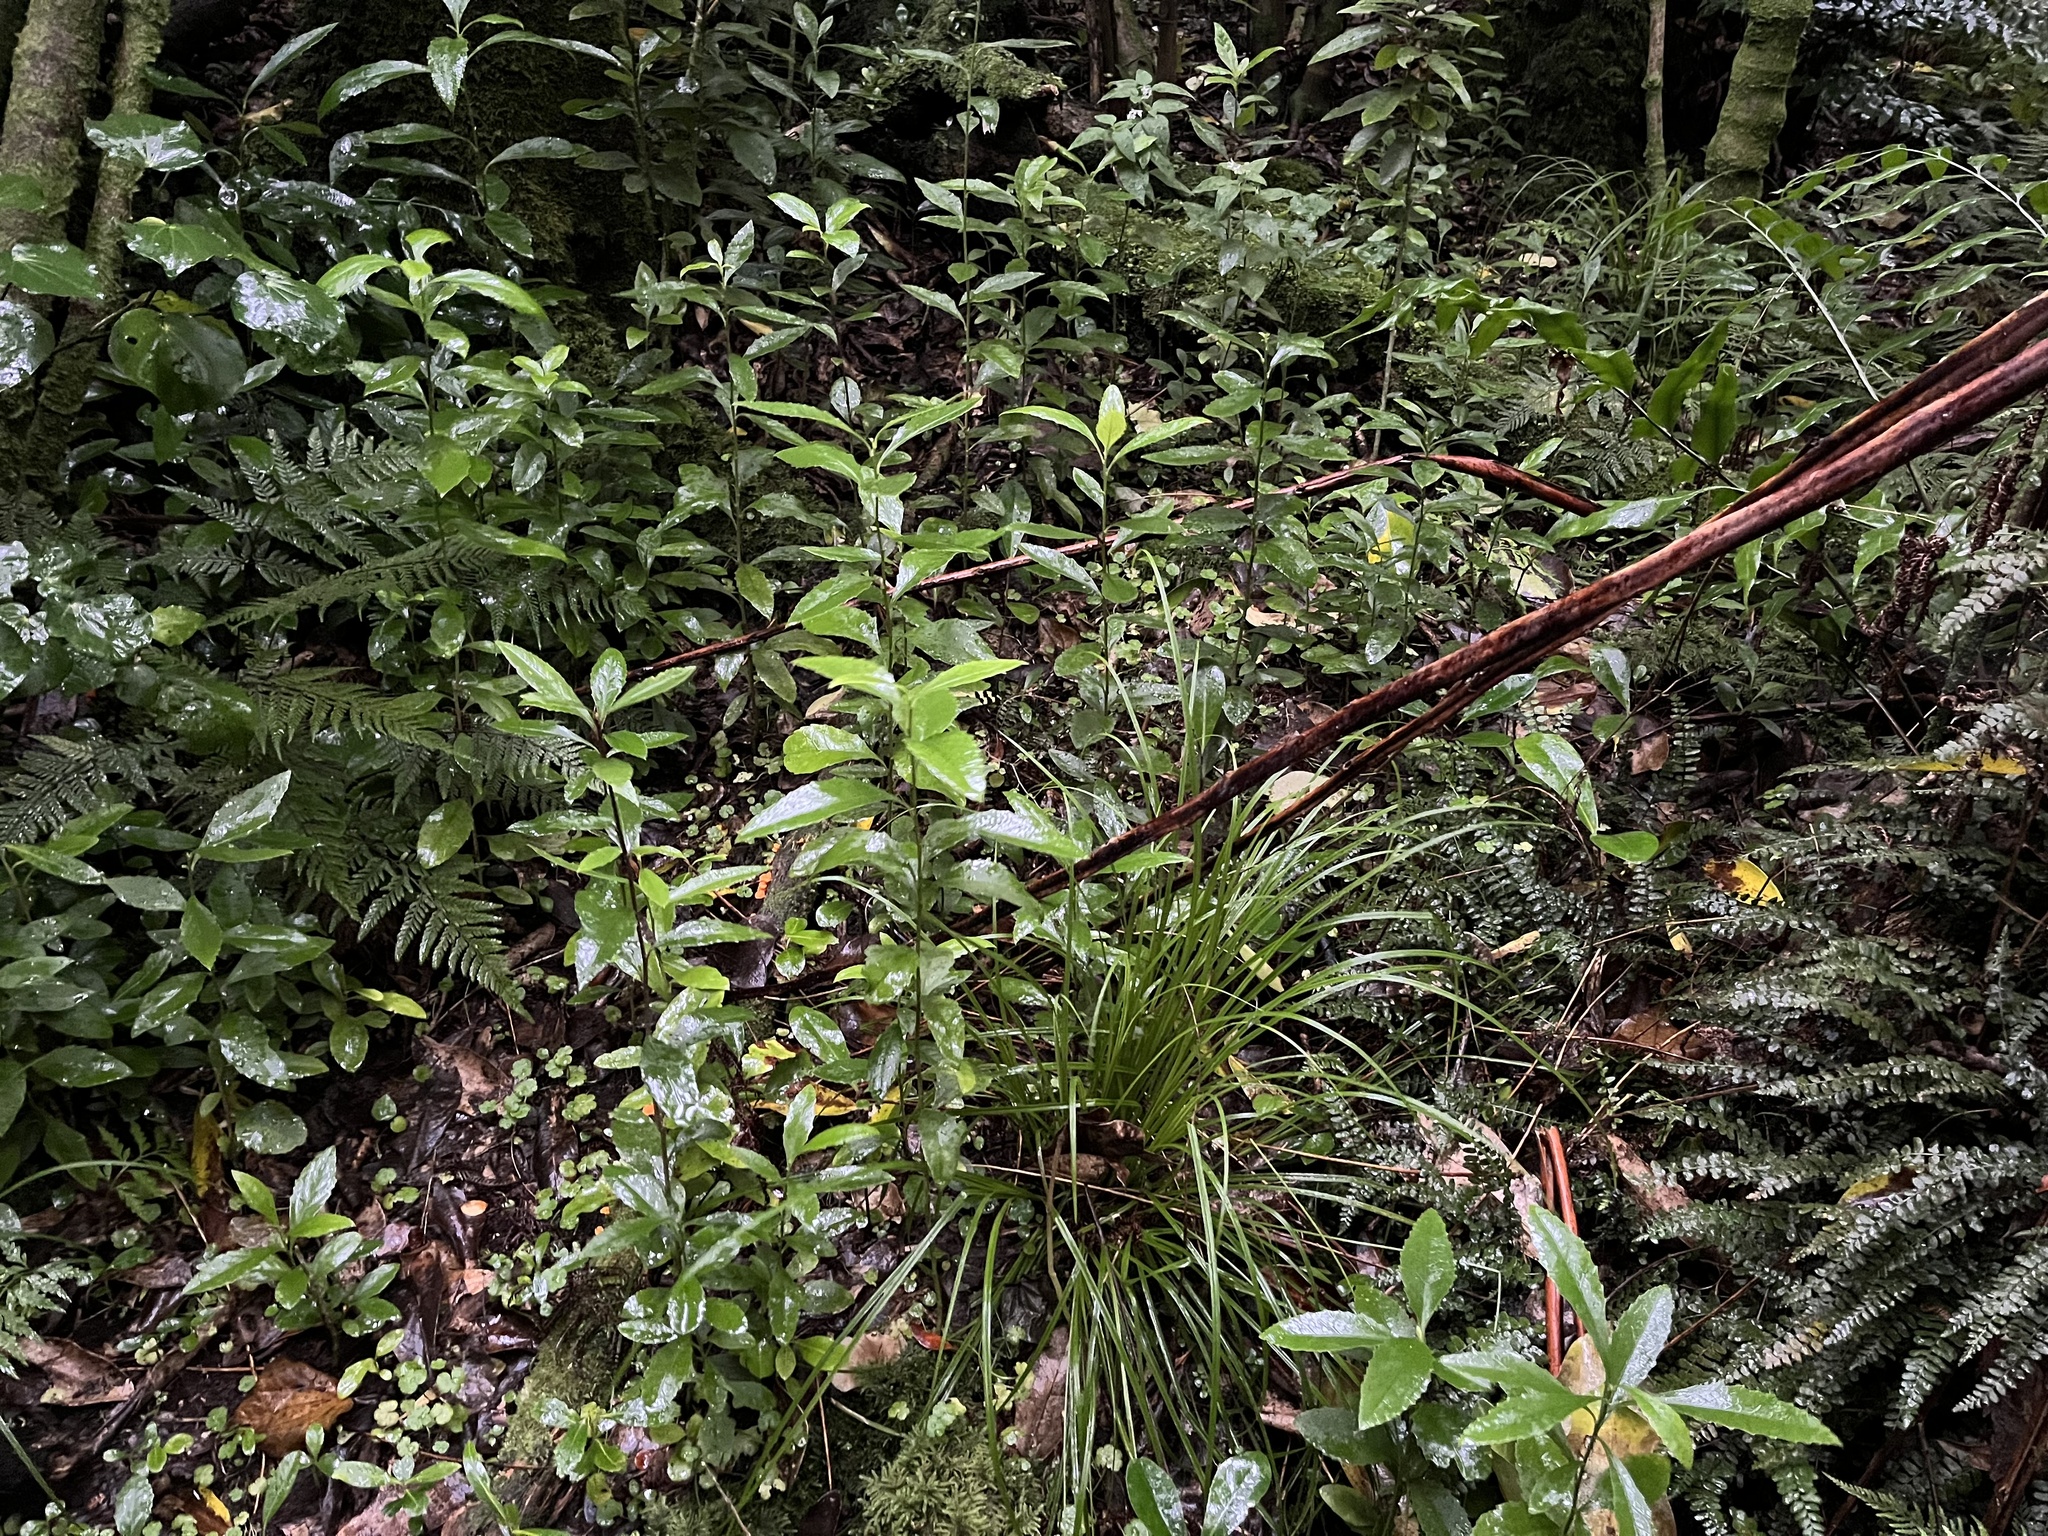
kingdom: Plantae
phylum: Tracheophyta
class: Magnoliopsida
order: Malpighiales
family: Violaceae
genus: Melicytus
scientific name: Melicytus chathamicus
